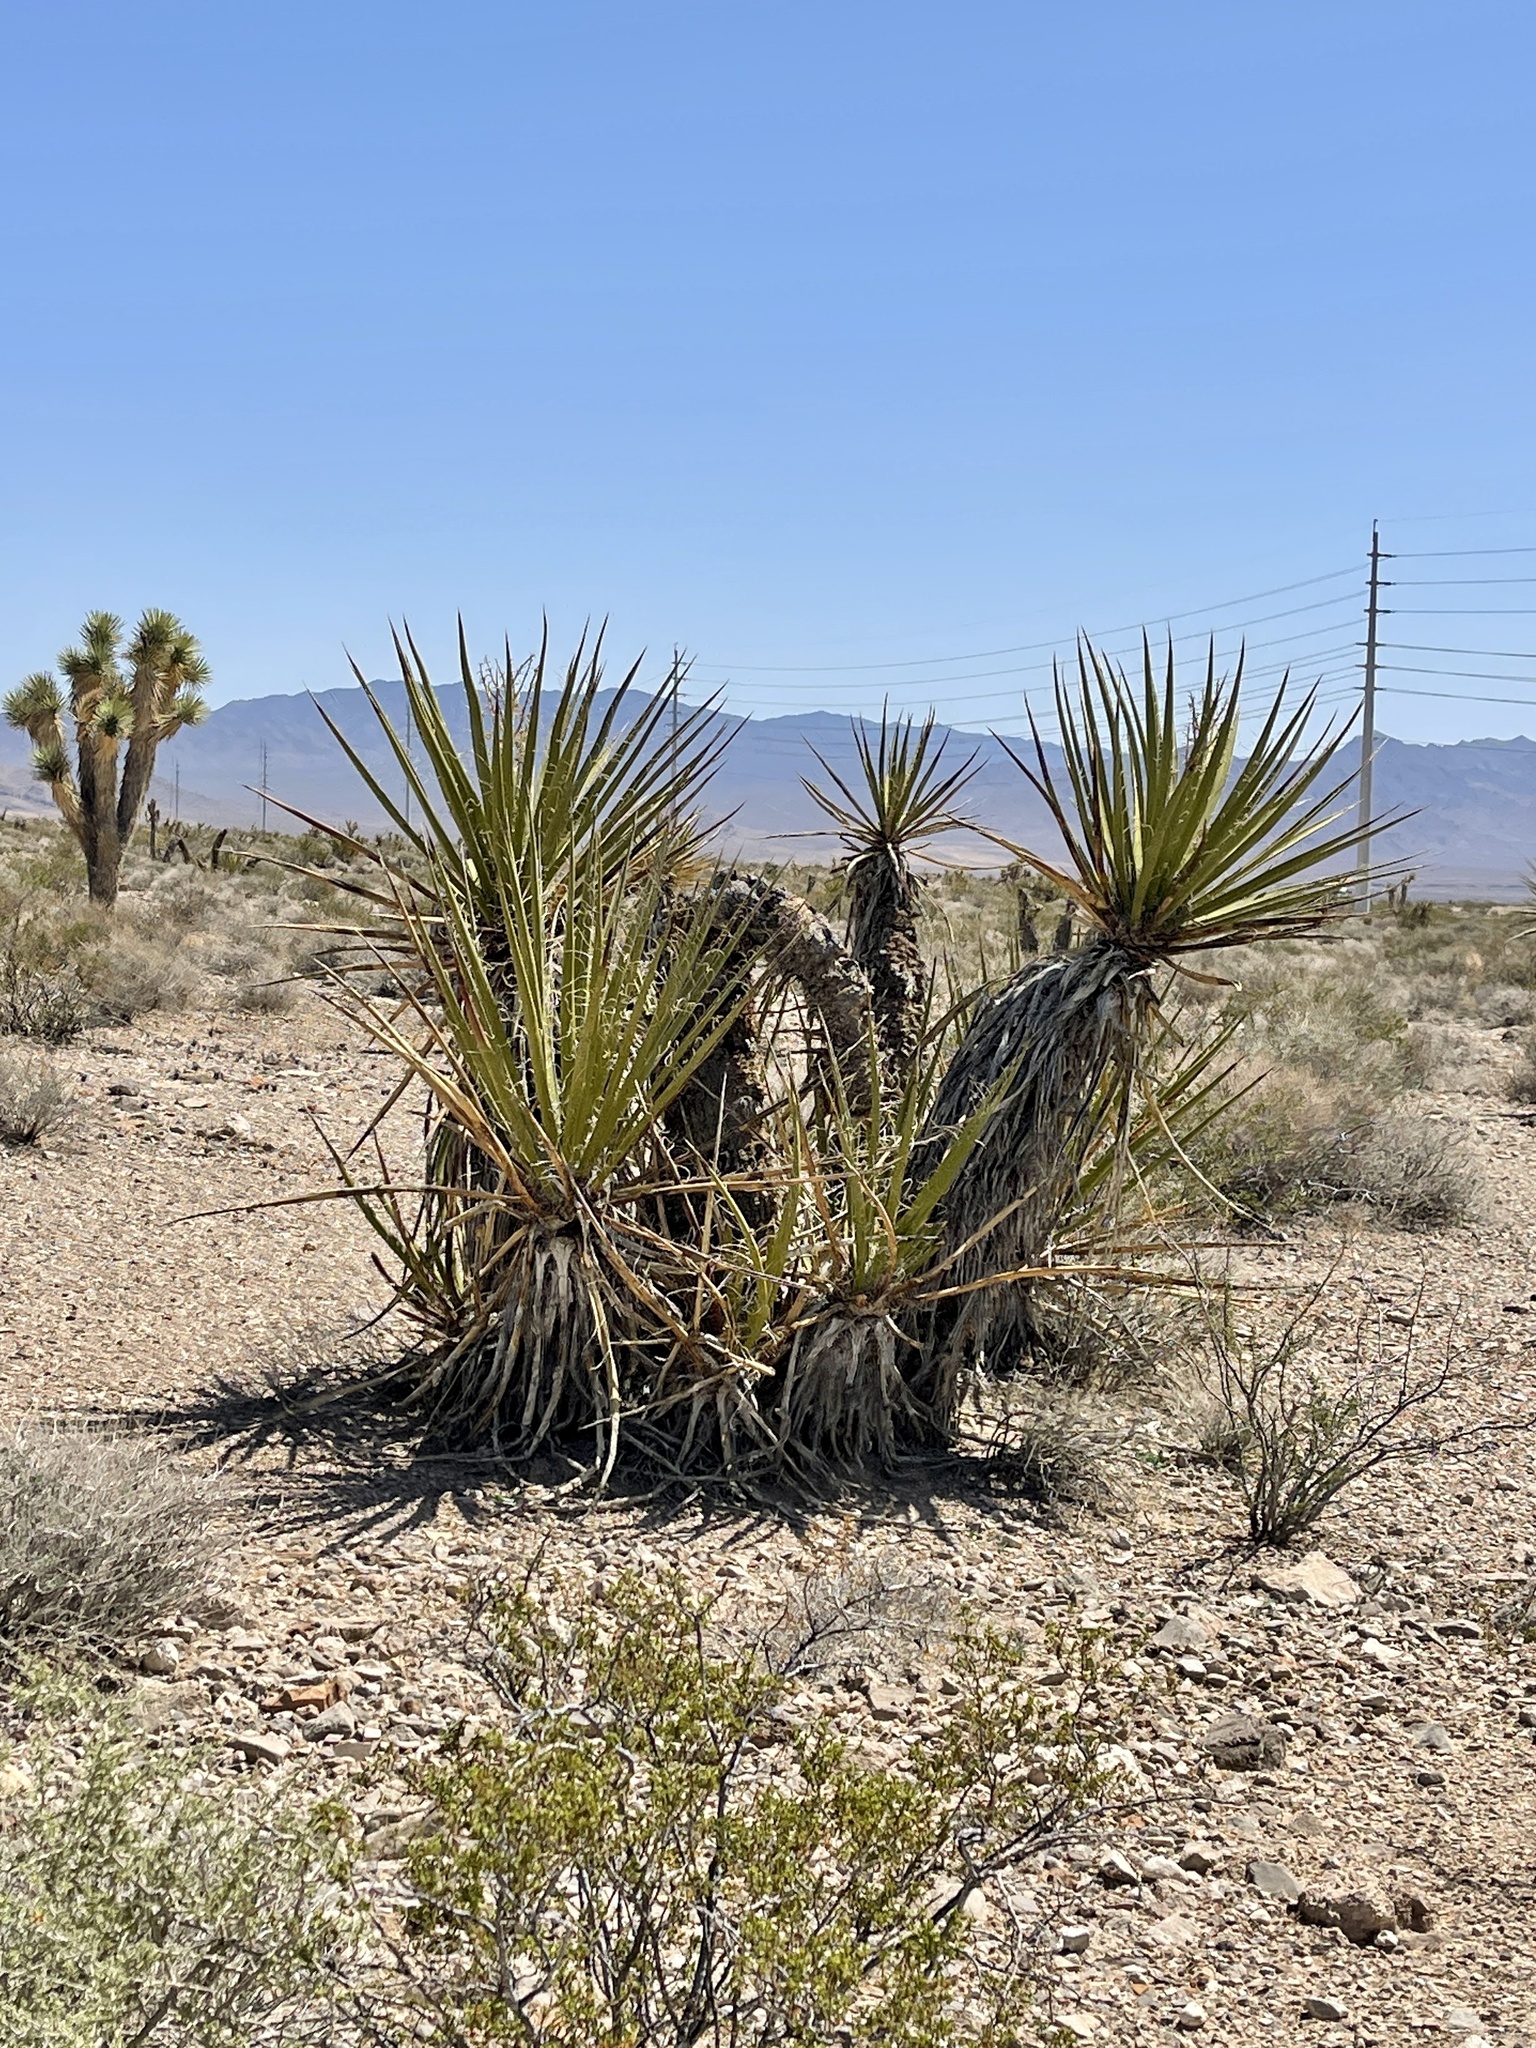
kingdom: Plantae
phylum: Tracheophyta
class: Liliopsida
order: Asparagales
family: Asparagaceae
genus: Yucca
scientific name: Yucca schidigera
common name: Mojave yucca
